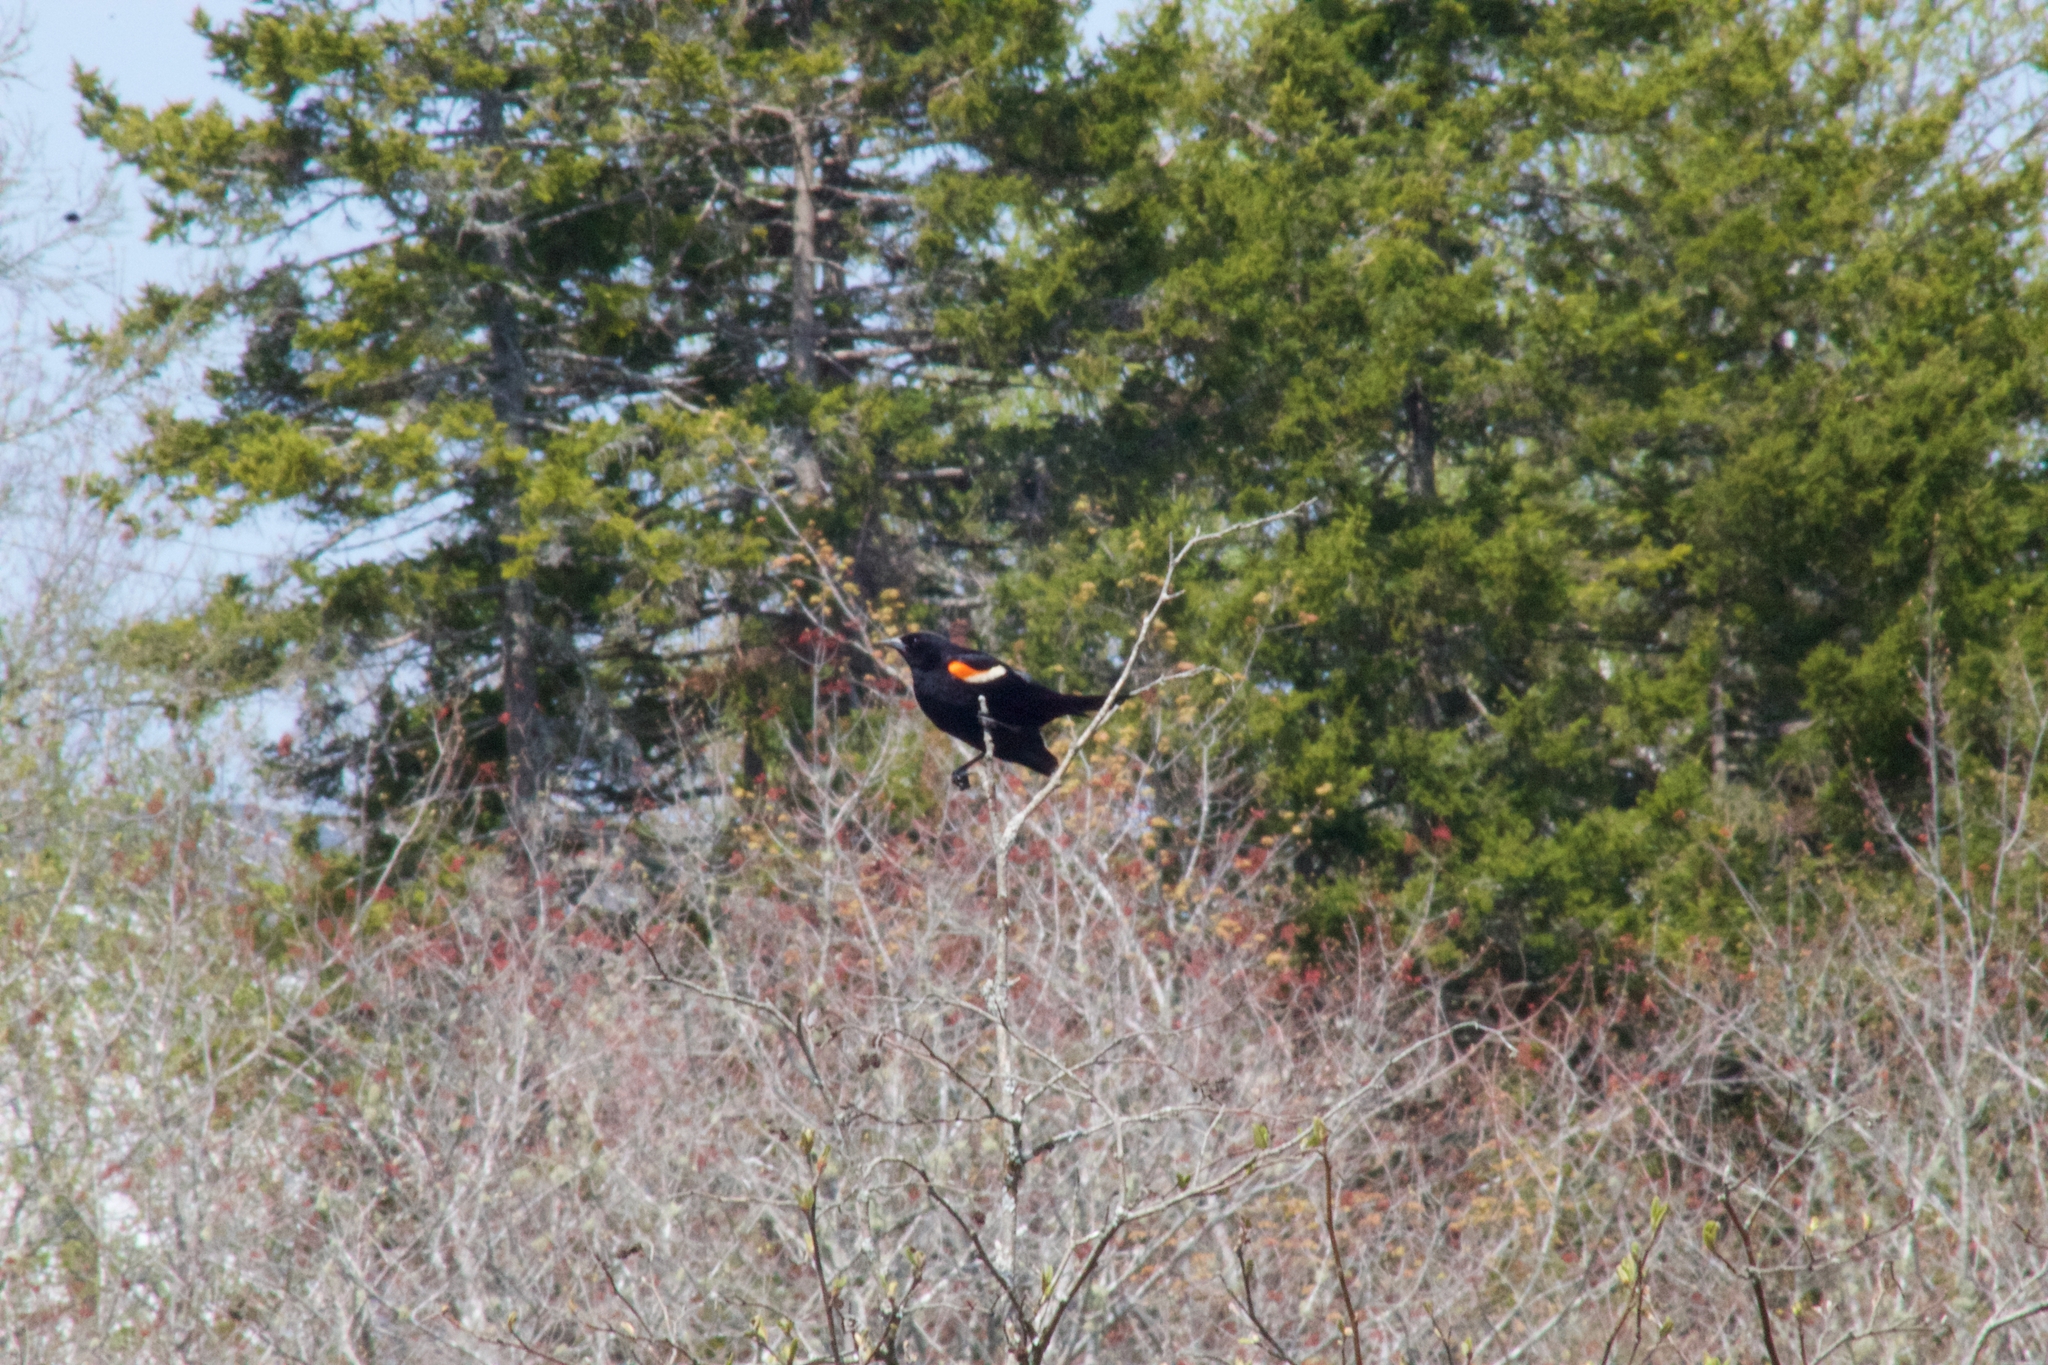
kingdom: Animalia
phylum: Chordata
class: Aves
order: Passeriformes
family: Icteridae
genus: Agelaius
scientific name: Agelaius phoeniceus
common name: Red-winged blackbird
